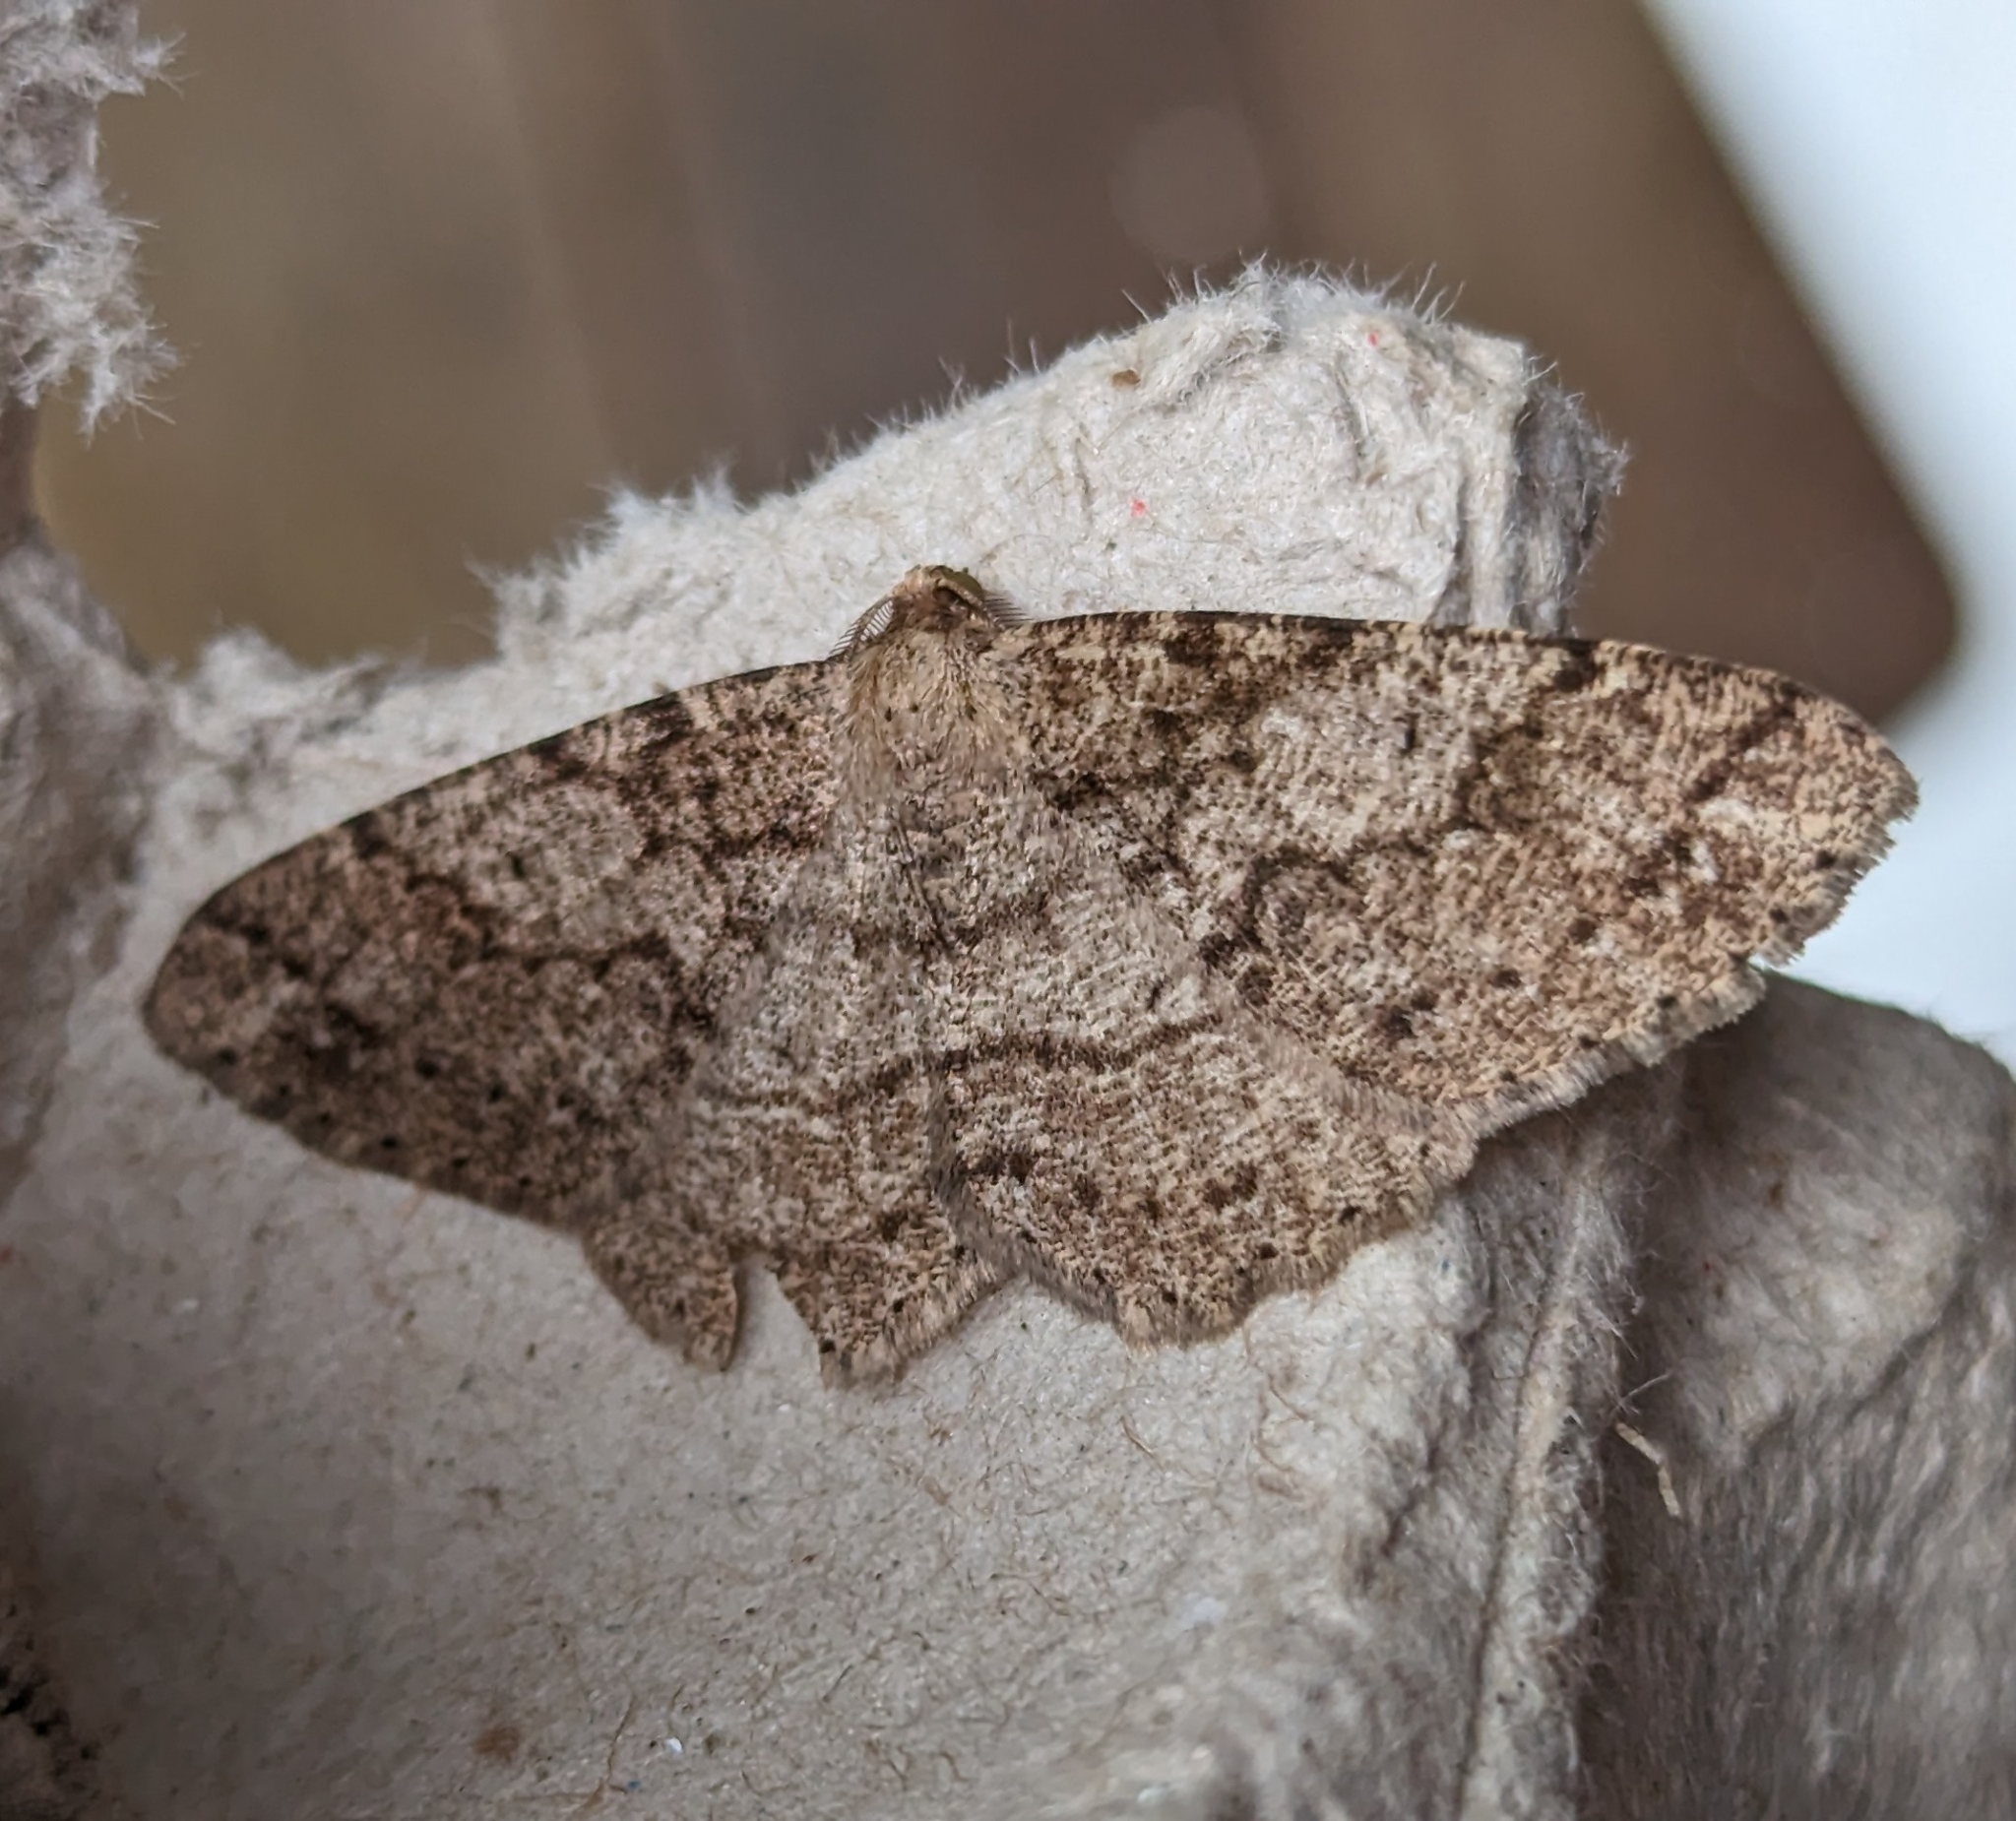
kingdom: Animalia
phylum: Arthropoda
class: Insecta
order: Lepidoptera
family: Geometridae
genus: Melanolophia
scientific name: Melanolophia imitata
